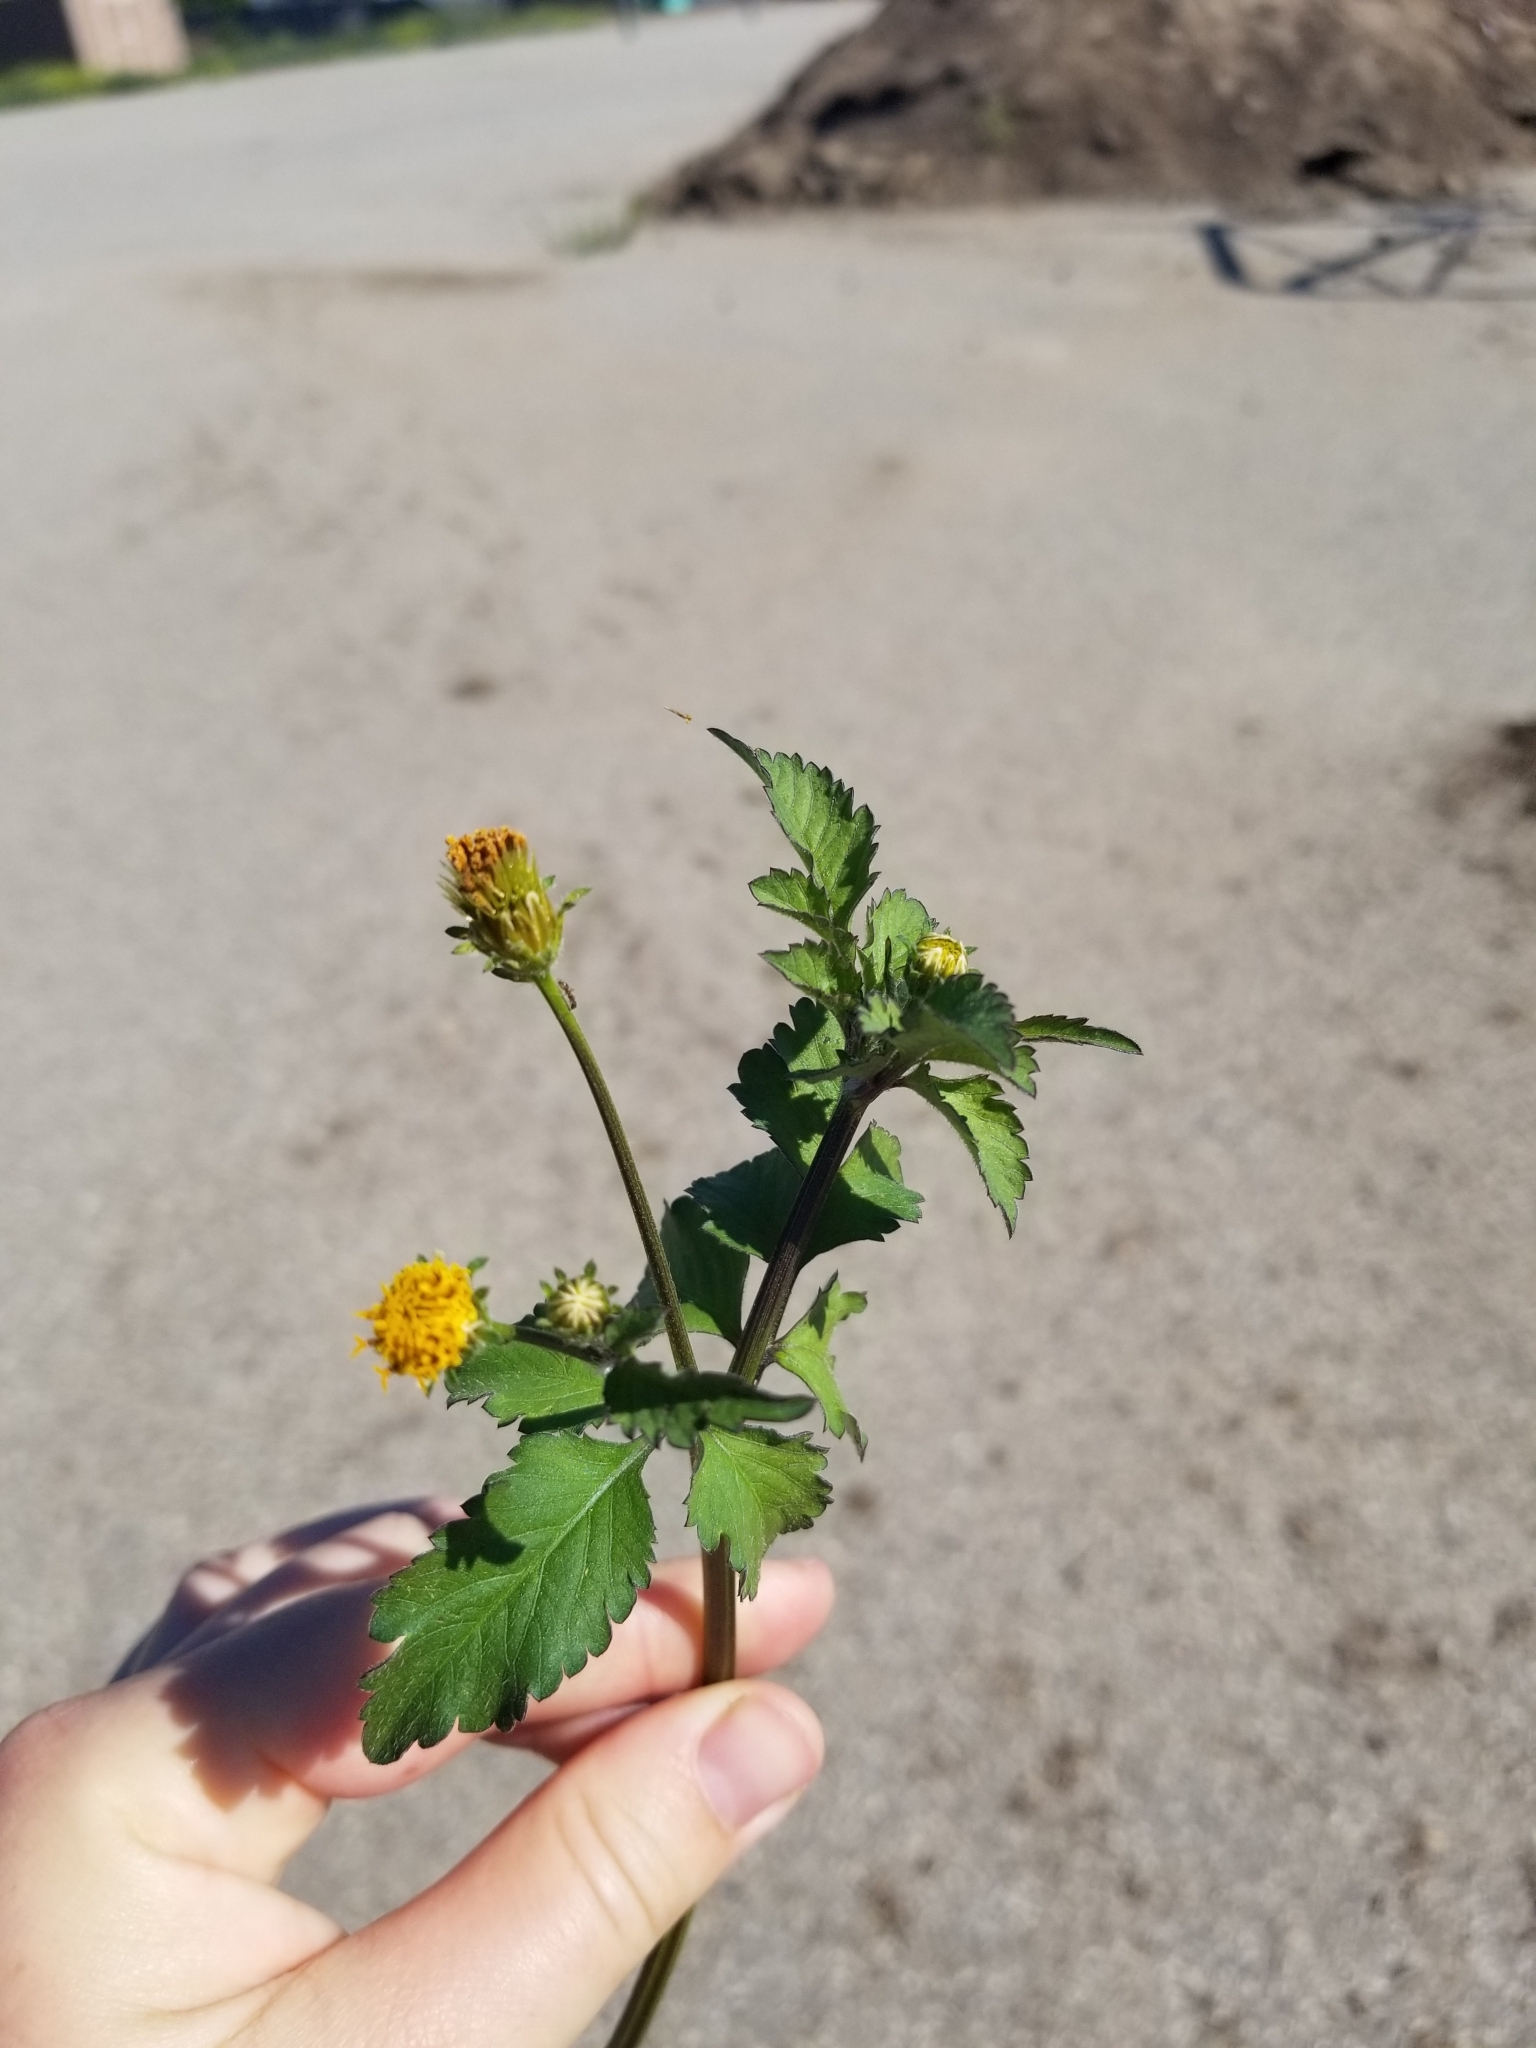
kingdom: Plantae
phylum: Tracheophyta
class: Magnoliopsida
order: Asterales
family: Asteraceae
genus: Bidens
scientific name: Bidens pilosa
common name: Black-jack
